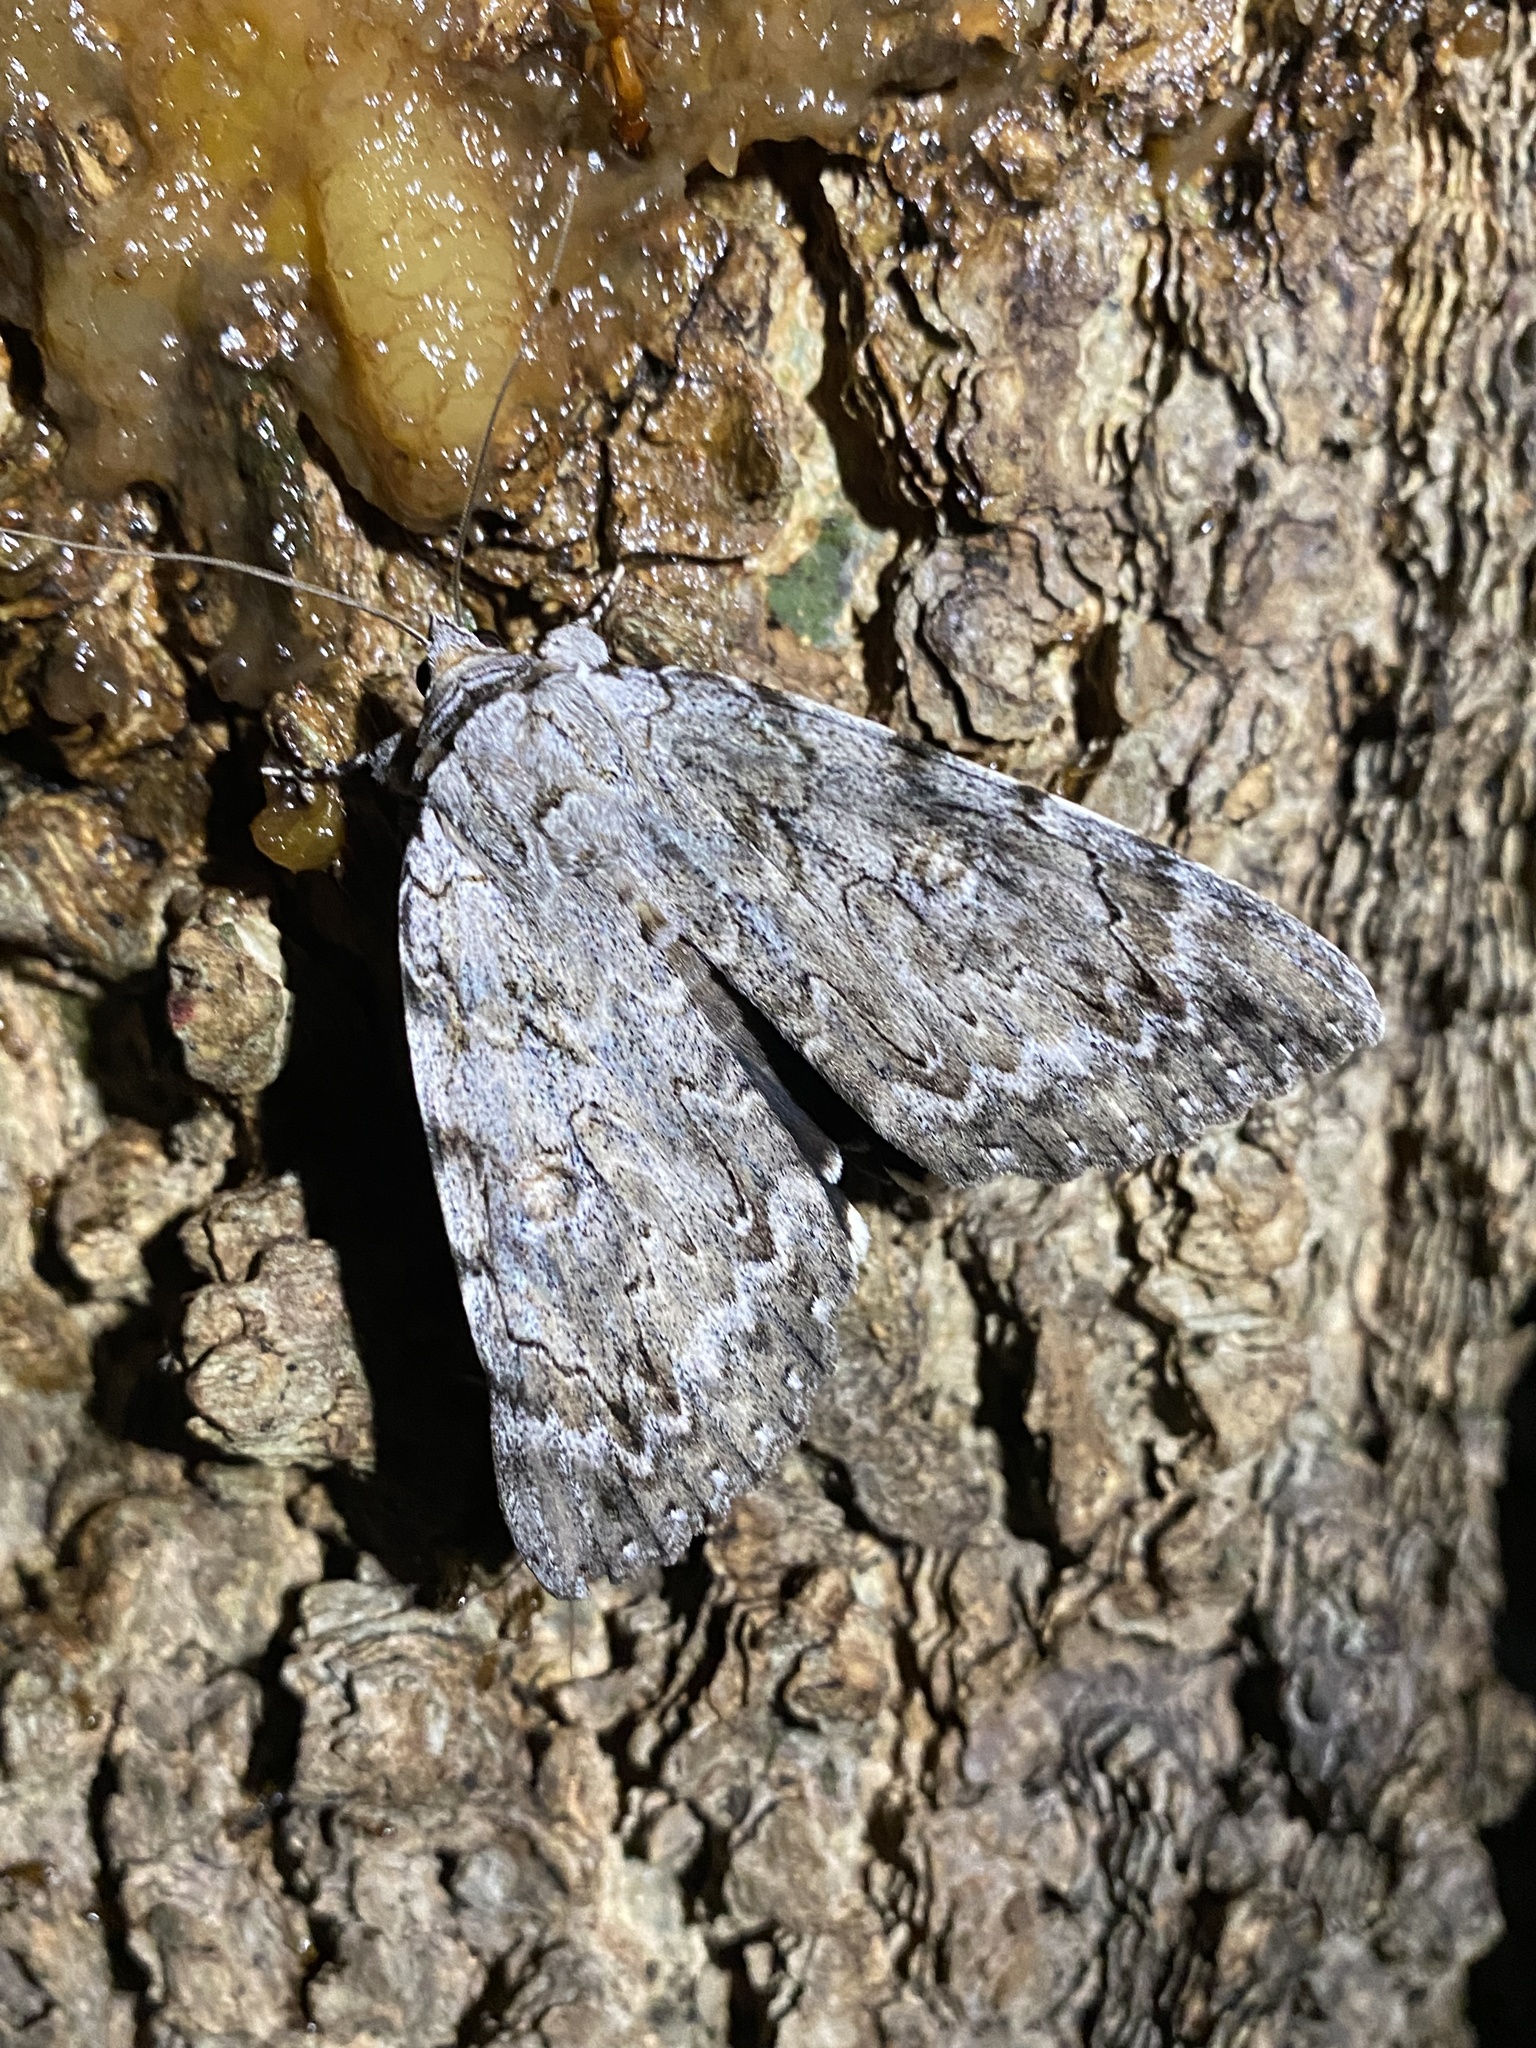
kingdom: Animalia
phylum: Arthropoda
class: Insecta
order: Lepidoptera
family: Erebidae
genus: Catocala
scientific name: Catocala robinsoni
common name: Robinson's underwing
